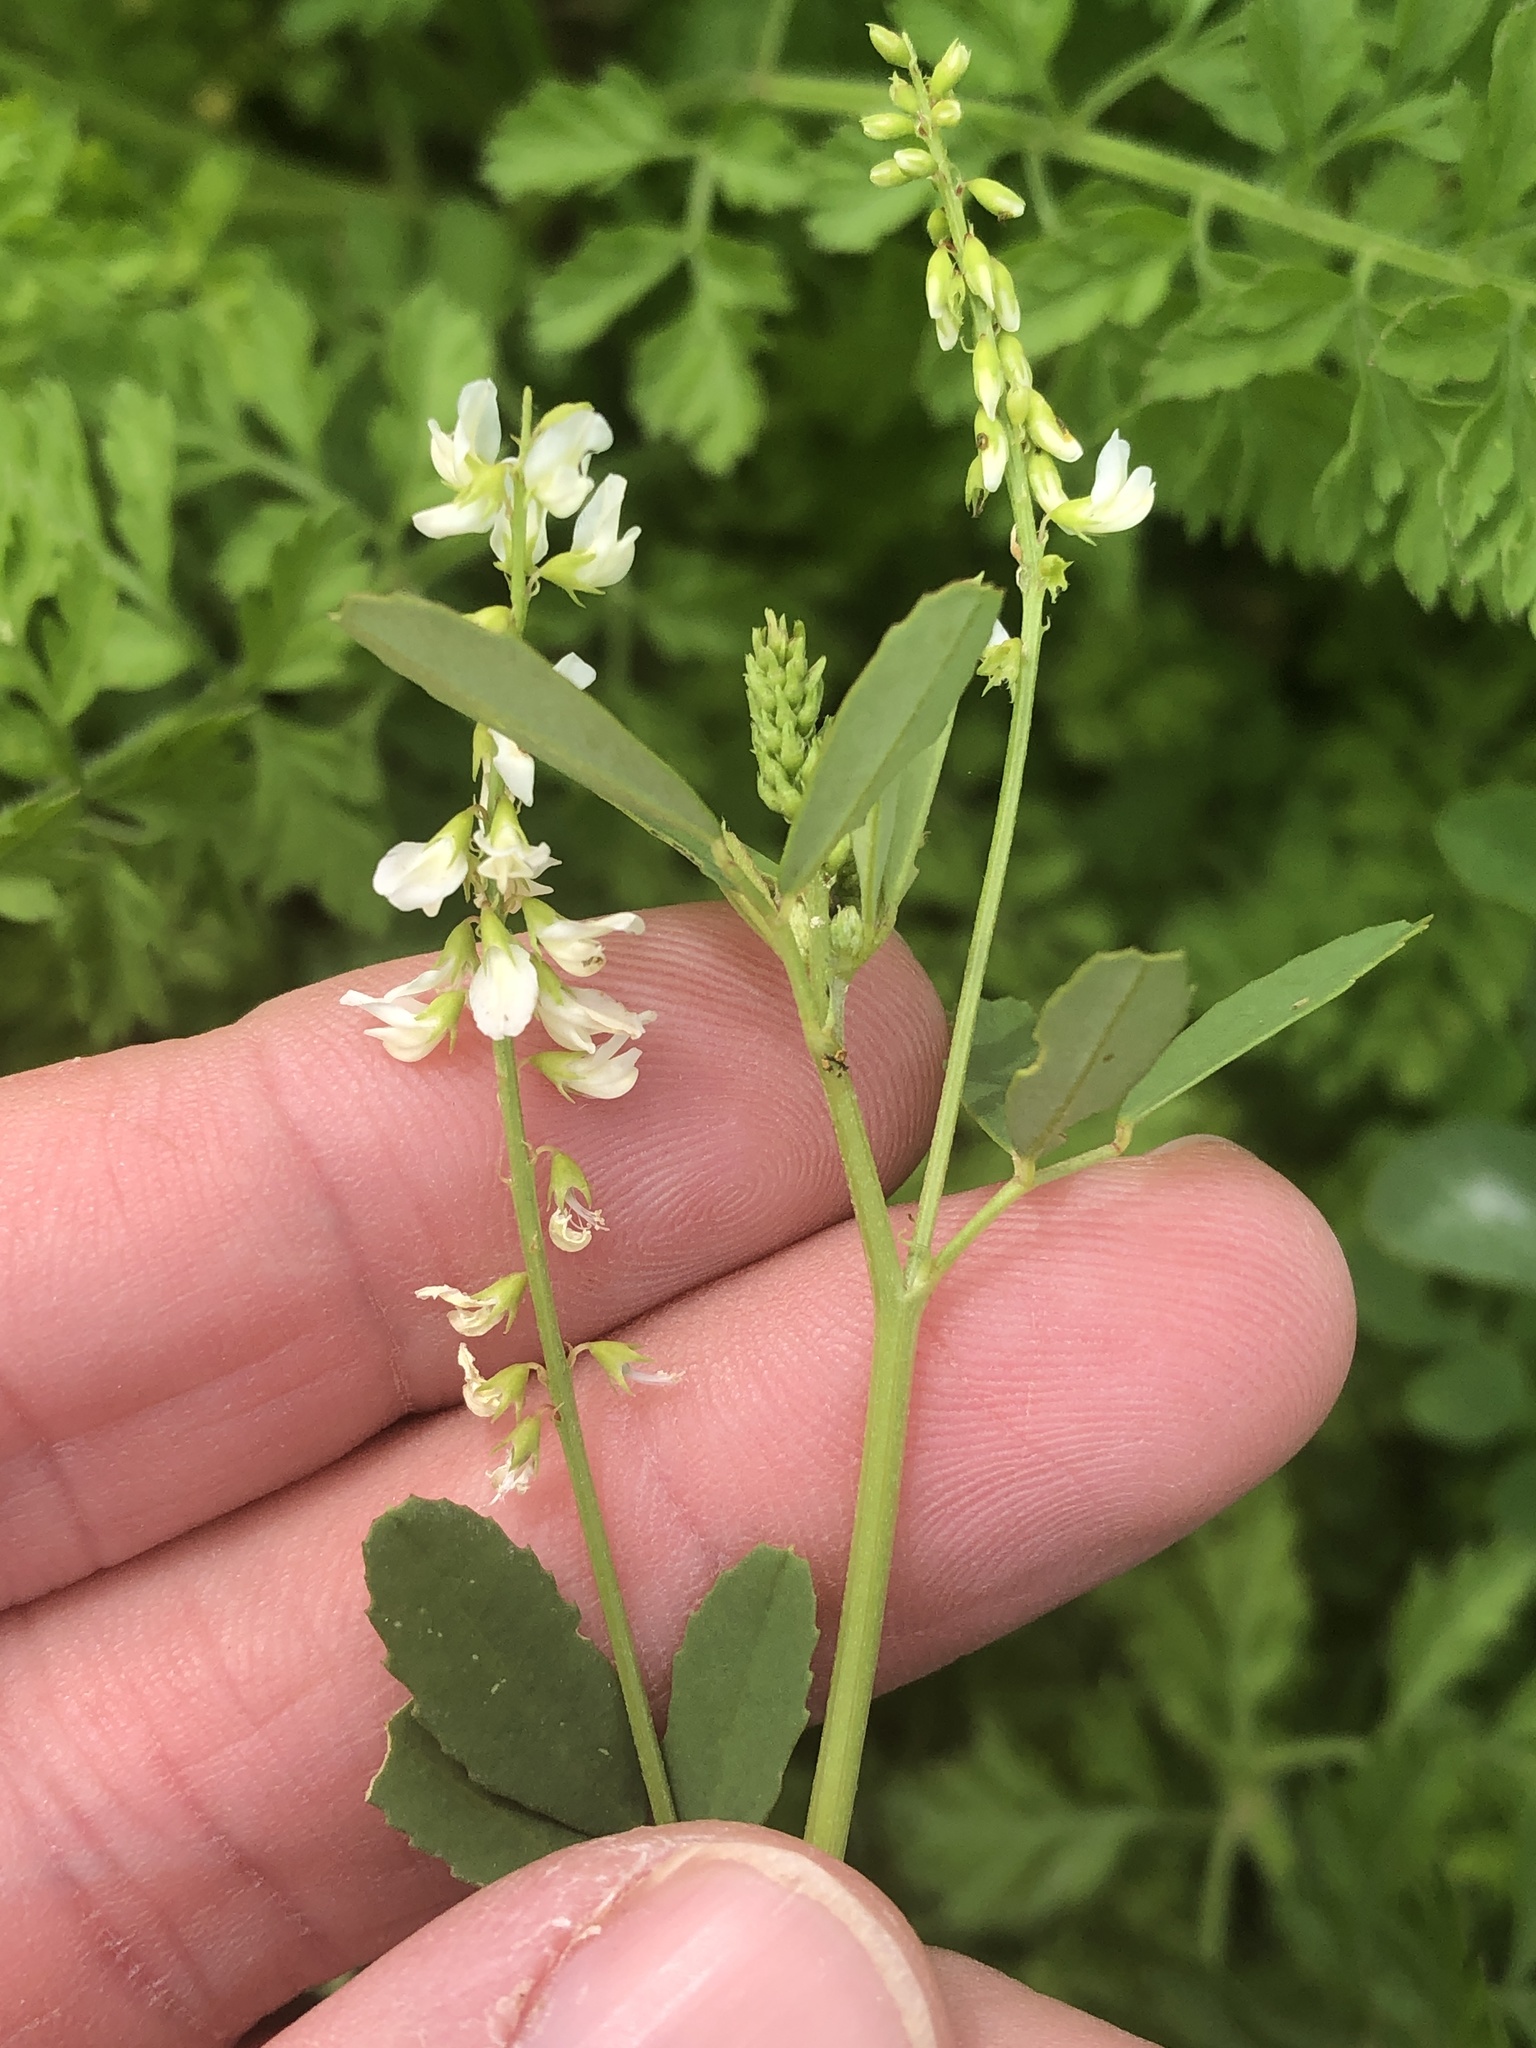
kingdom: Plantae
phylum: Tracheophyta
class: Magnoliopsida
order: Fabales
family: Fabaceae
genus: Melilotus
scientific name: Melilotus albus
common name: White melilot
